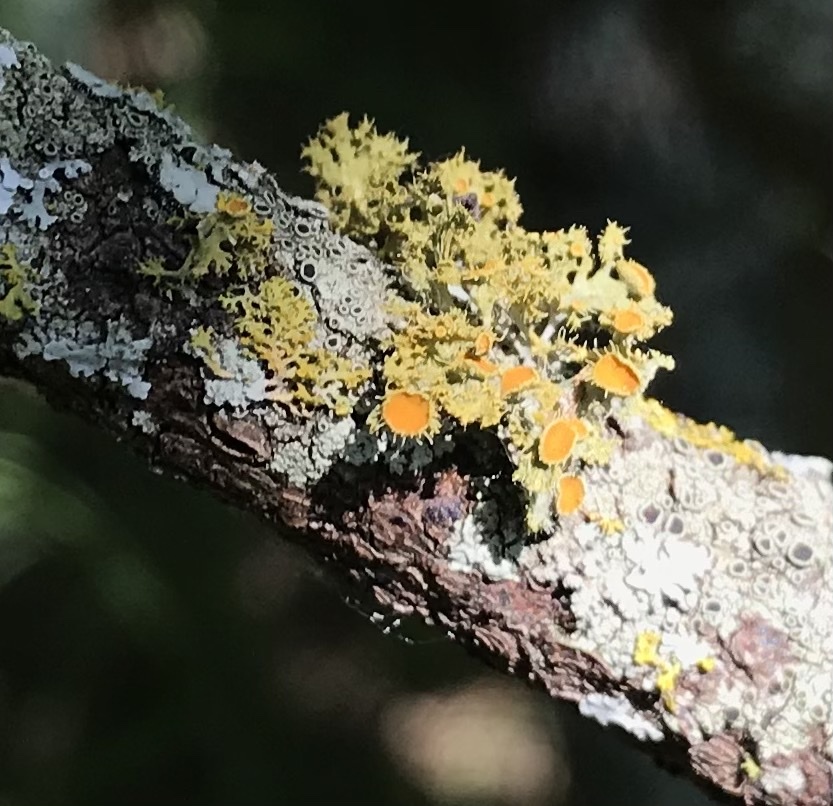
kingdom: Fungi
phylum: Ascomycota
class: Lecanoromycetes
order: Teloschistales
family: Teloschistaceae
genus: Niorma
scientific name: Niorma chrysophthalma
